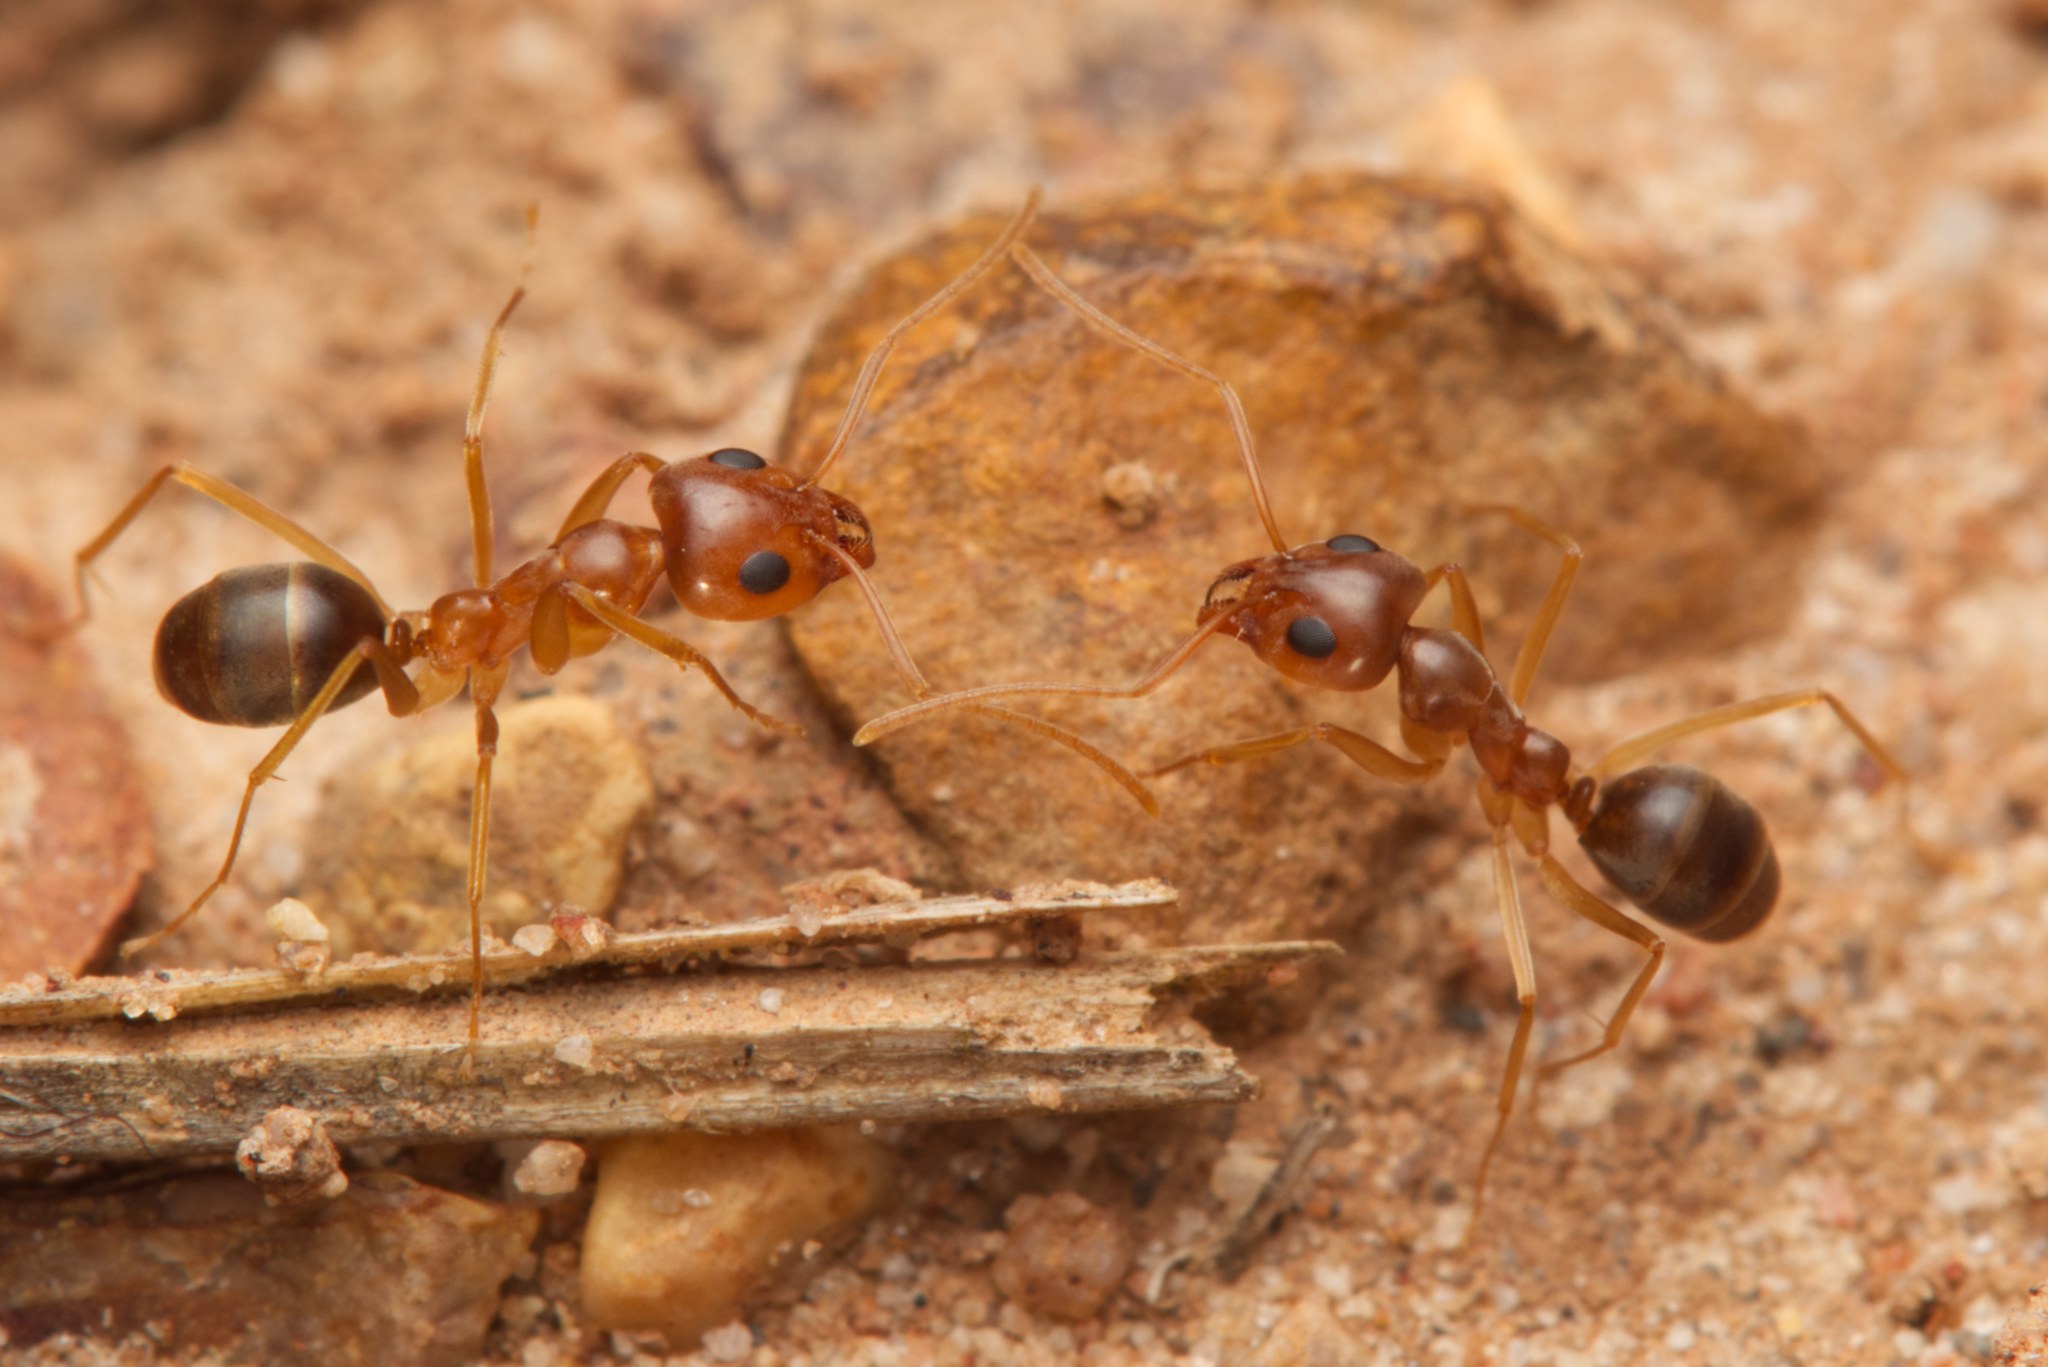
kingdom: Animalia
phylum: Arthropoda
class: Insecta
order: Hymenoptera
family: Formicidae
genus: Iridomyrmex
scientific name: Iridomyrmex pallidus
